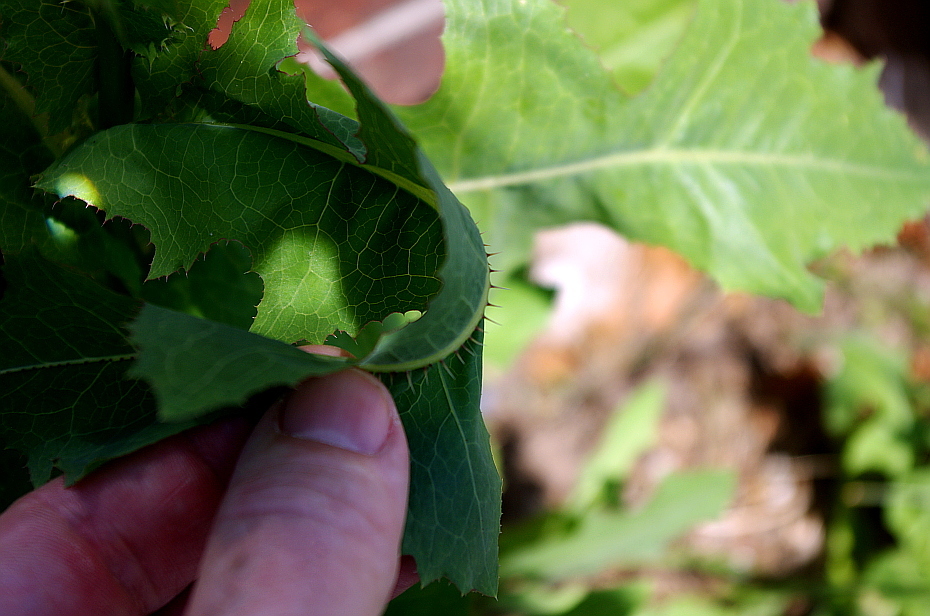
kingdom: Plantae
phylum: Tracheophyta
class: Magnoliopsida
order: Asterales
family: Asteraceae
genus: Lactuca
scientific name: Lactuca serriola
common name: Prickly lettuce
